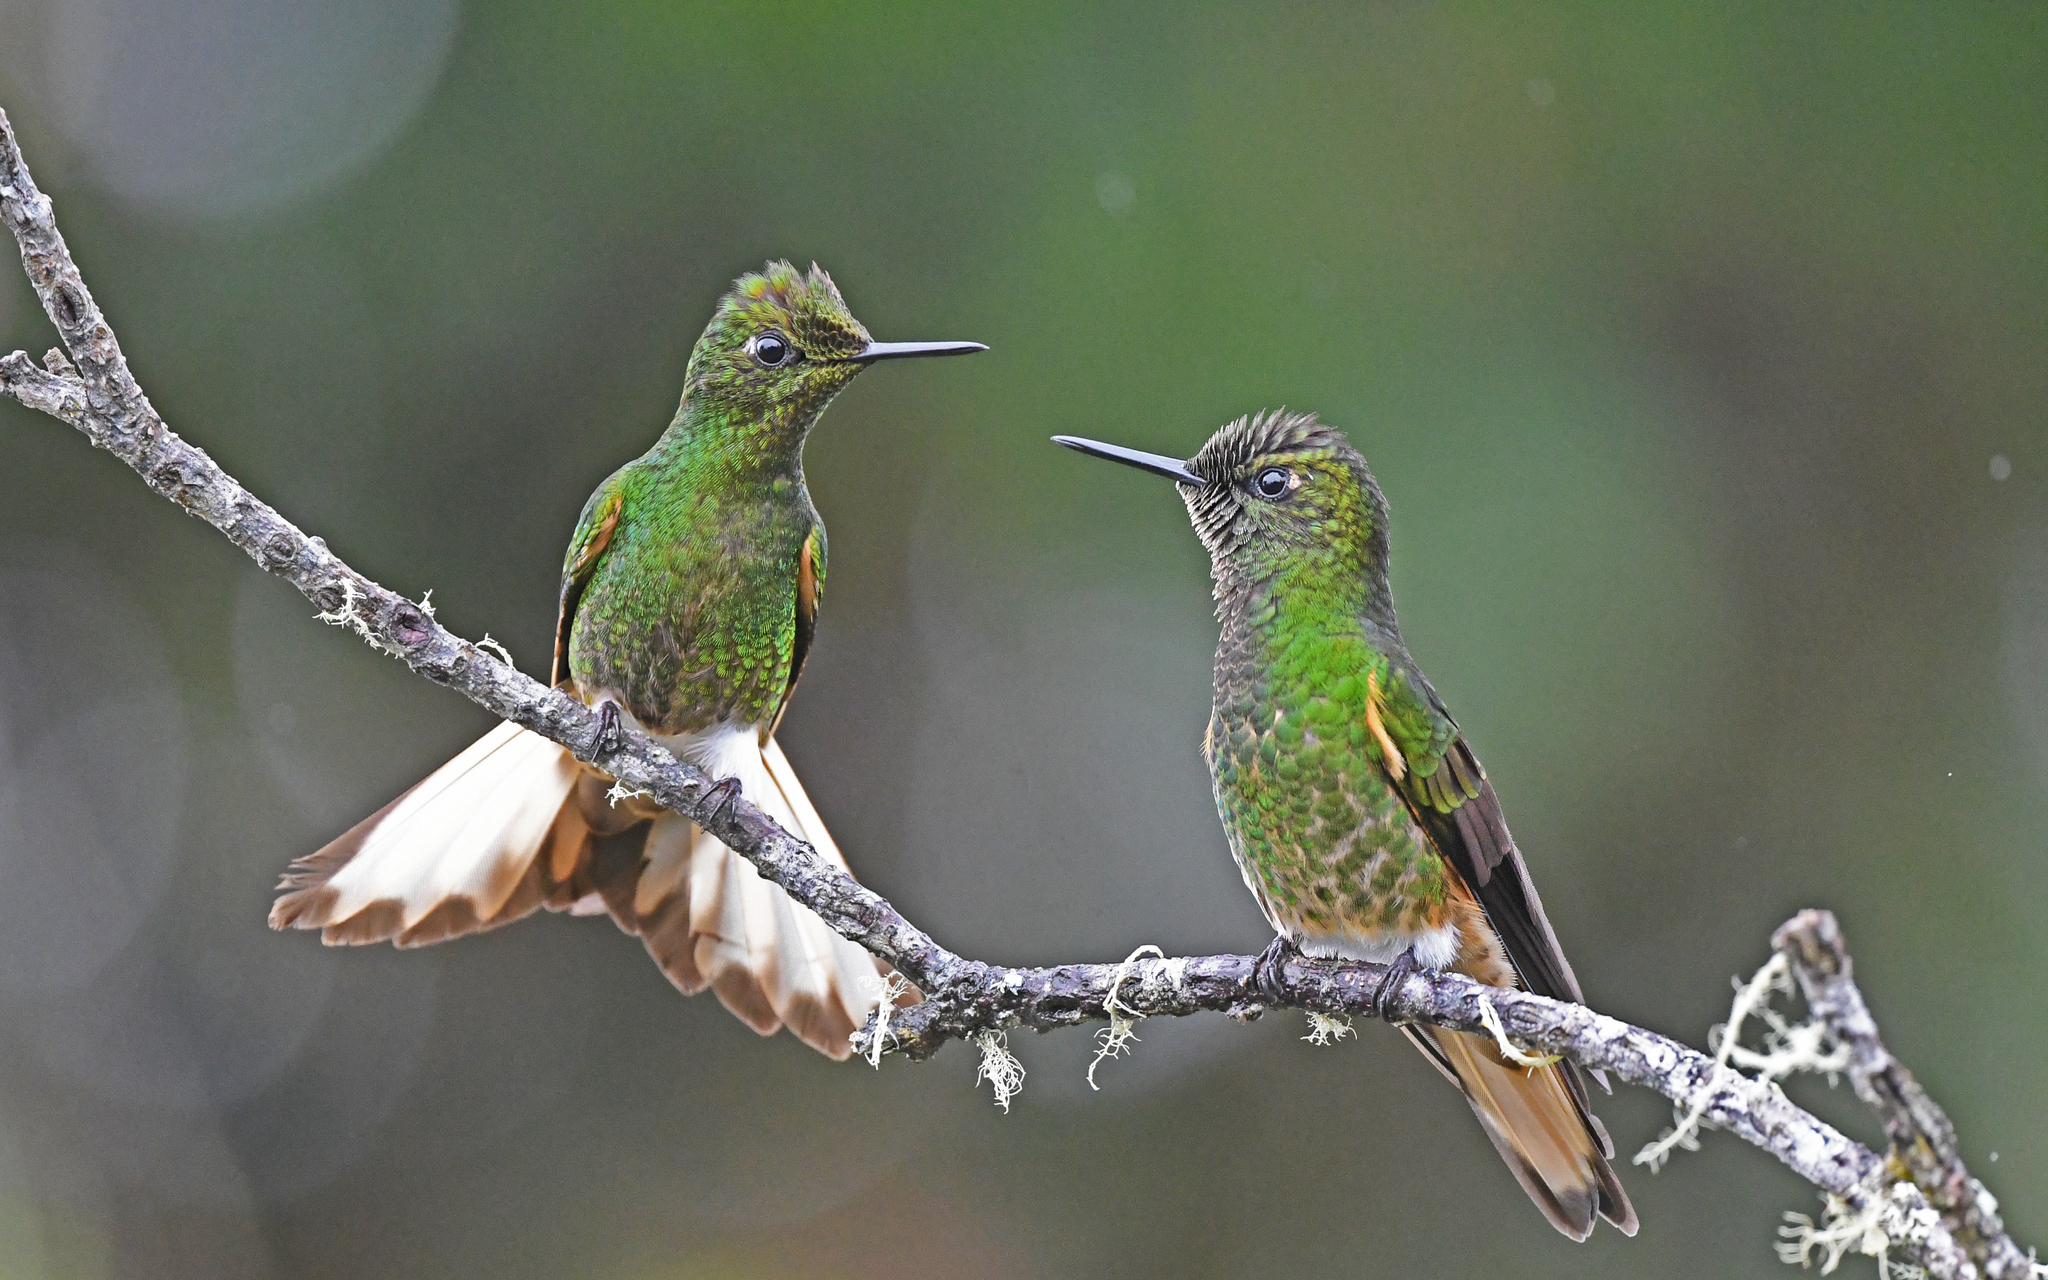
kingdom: Animalia
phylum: Chordata
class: Aves
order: Apodiformes
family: Trochilidae
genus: Boissonneaua
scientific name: Boissonneaua flavescens
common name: Buff-tailed coronet
